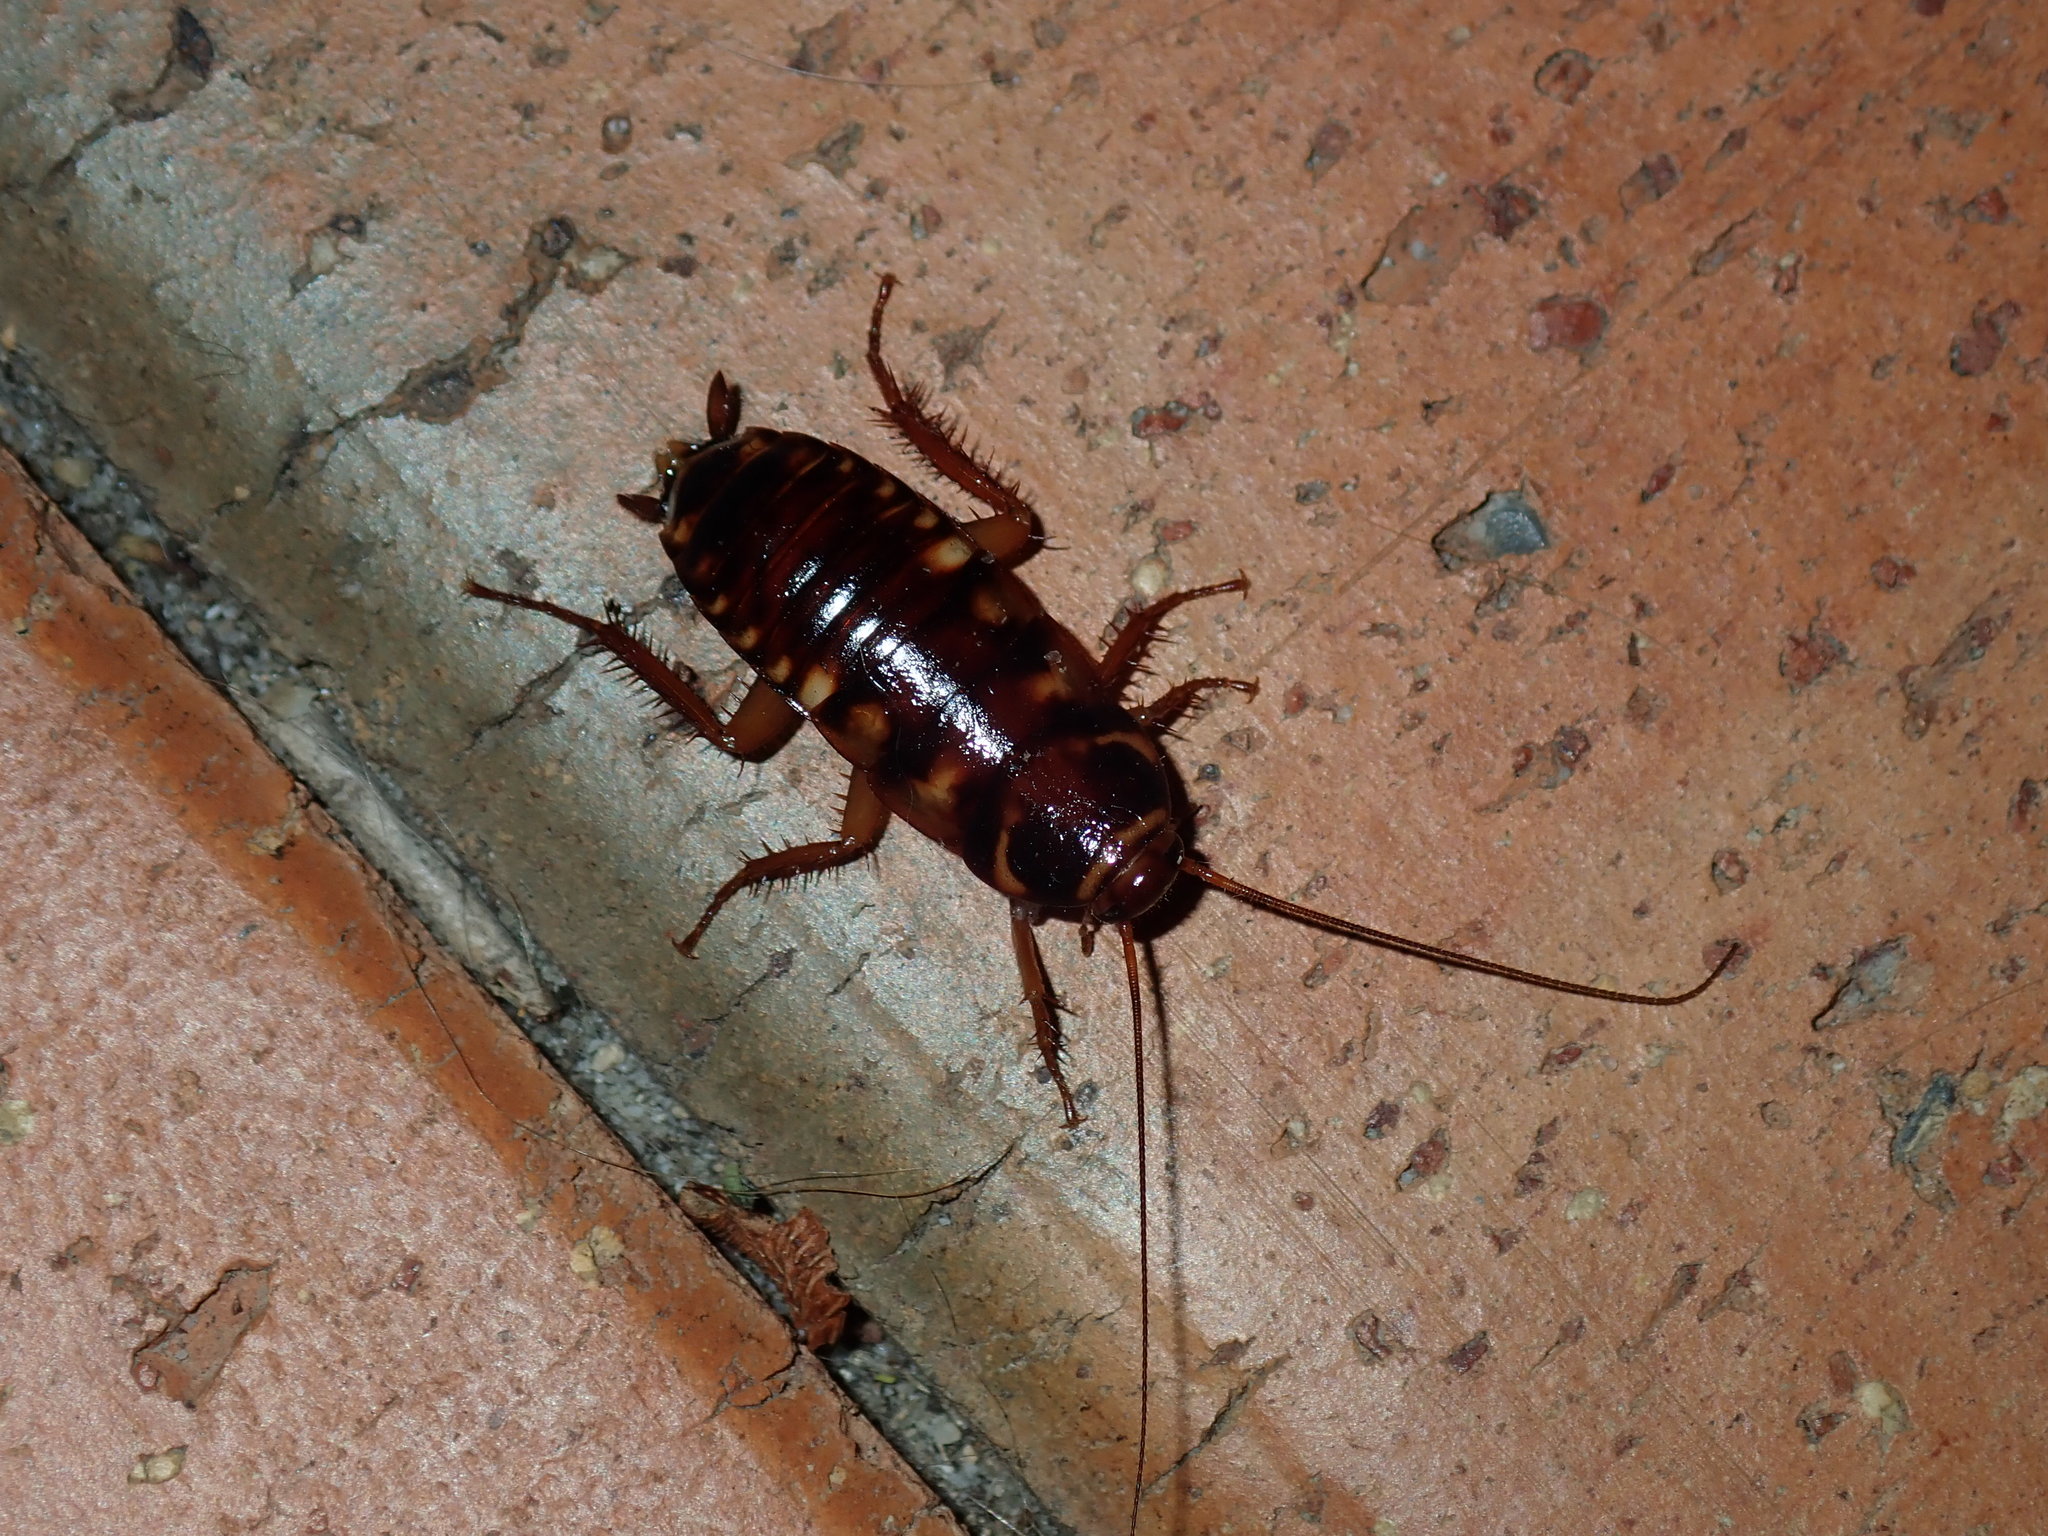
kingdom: Animalia
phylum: Arthropoda
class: Insecta
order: Blattodea
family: Blattidae
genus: Periplaneta
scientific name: Periplaneta australasiae
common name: Australian cockroach
